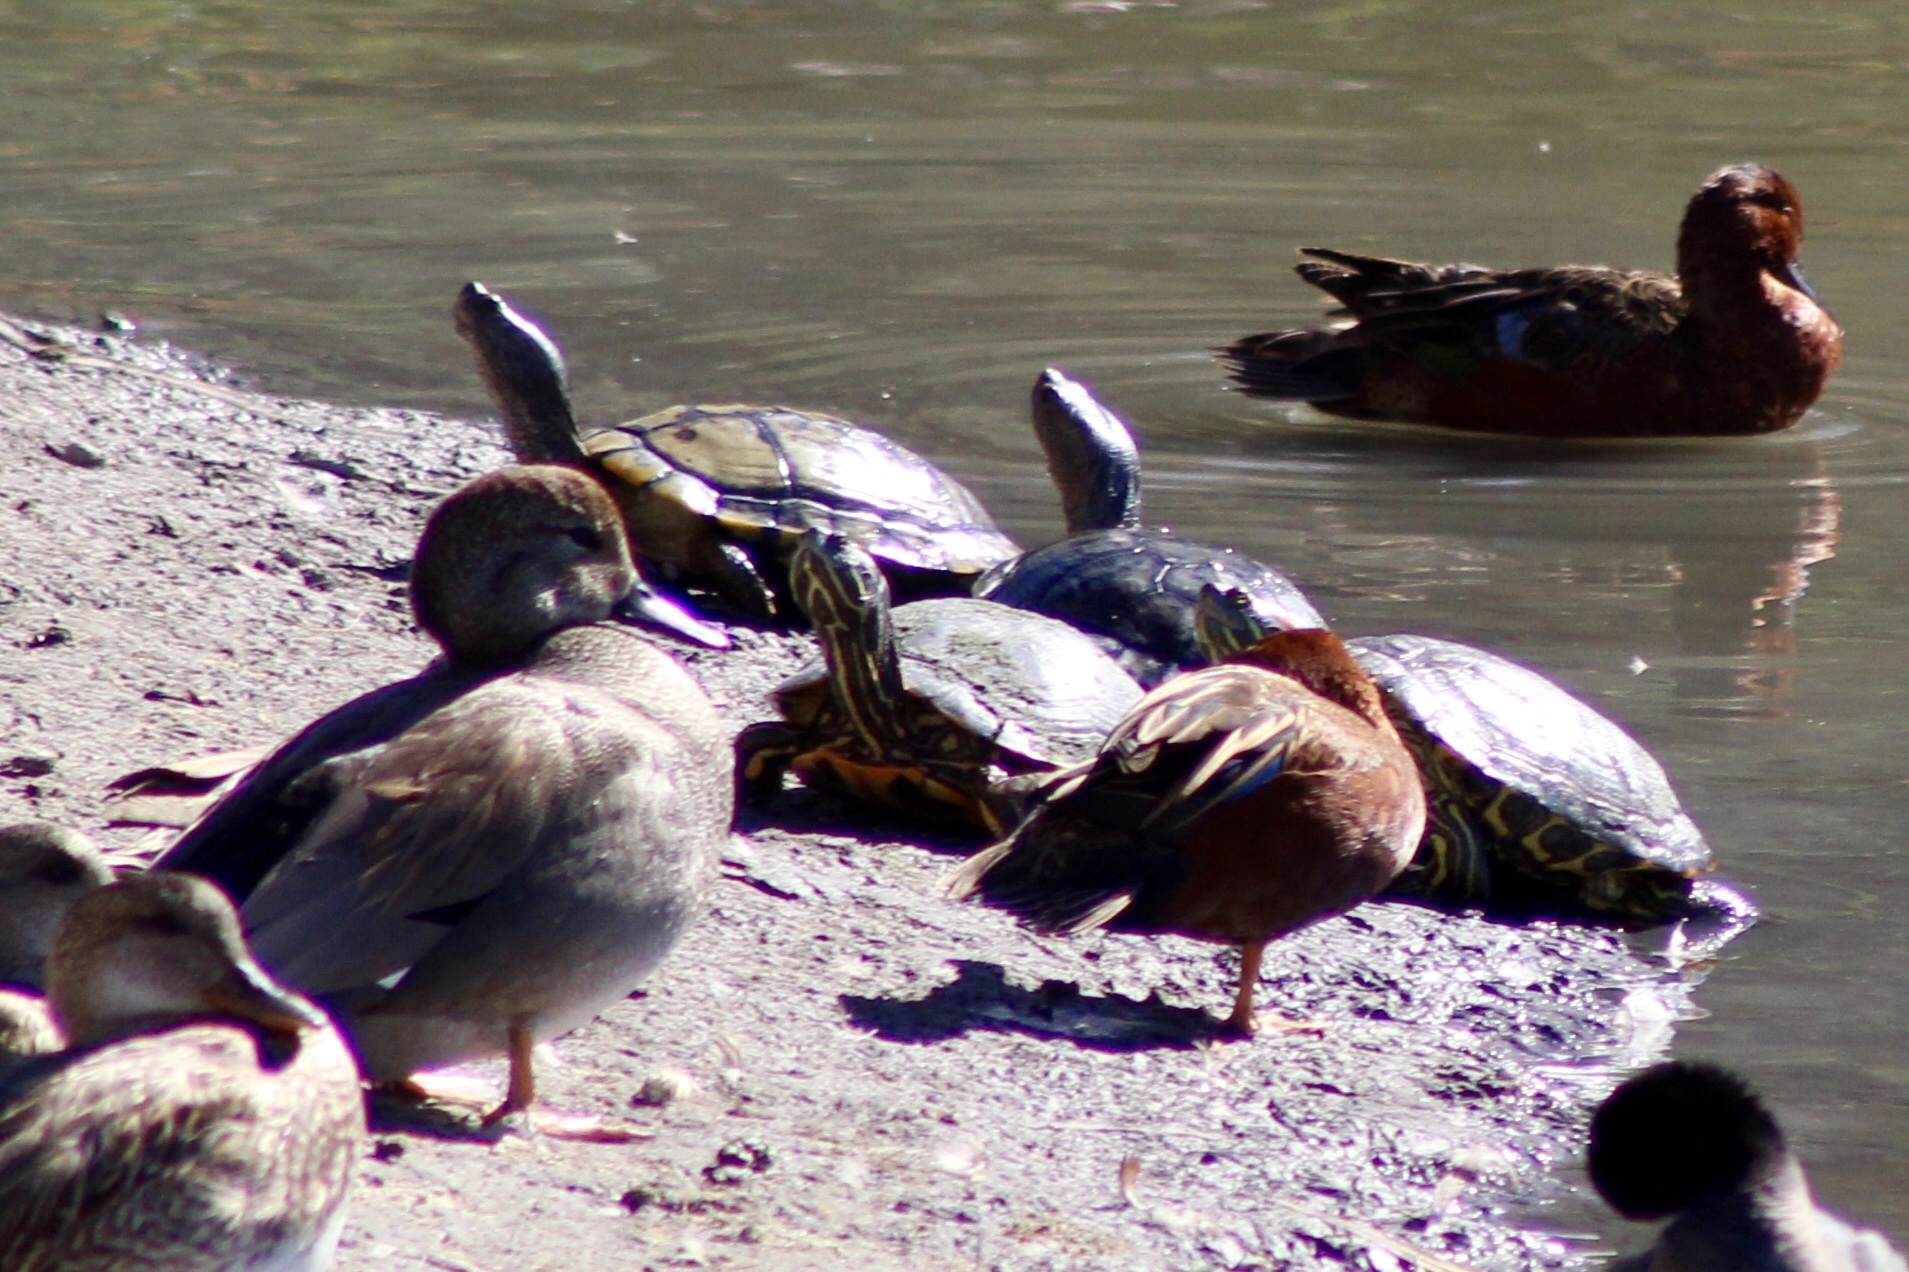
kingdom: Animalia
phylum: Chordata
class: Testudines
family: Emydidae
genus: Trachemys
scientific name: Trachemys scripta
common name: Slider
